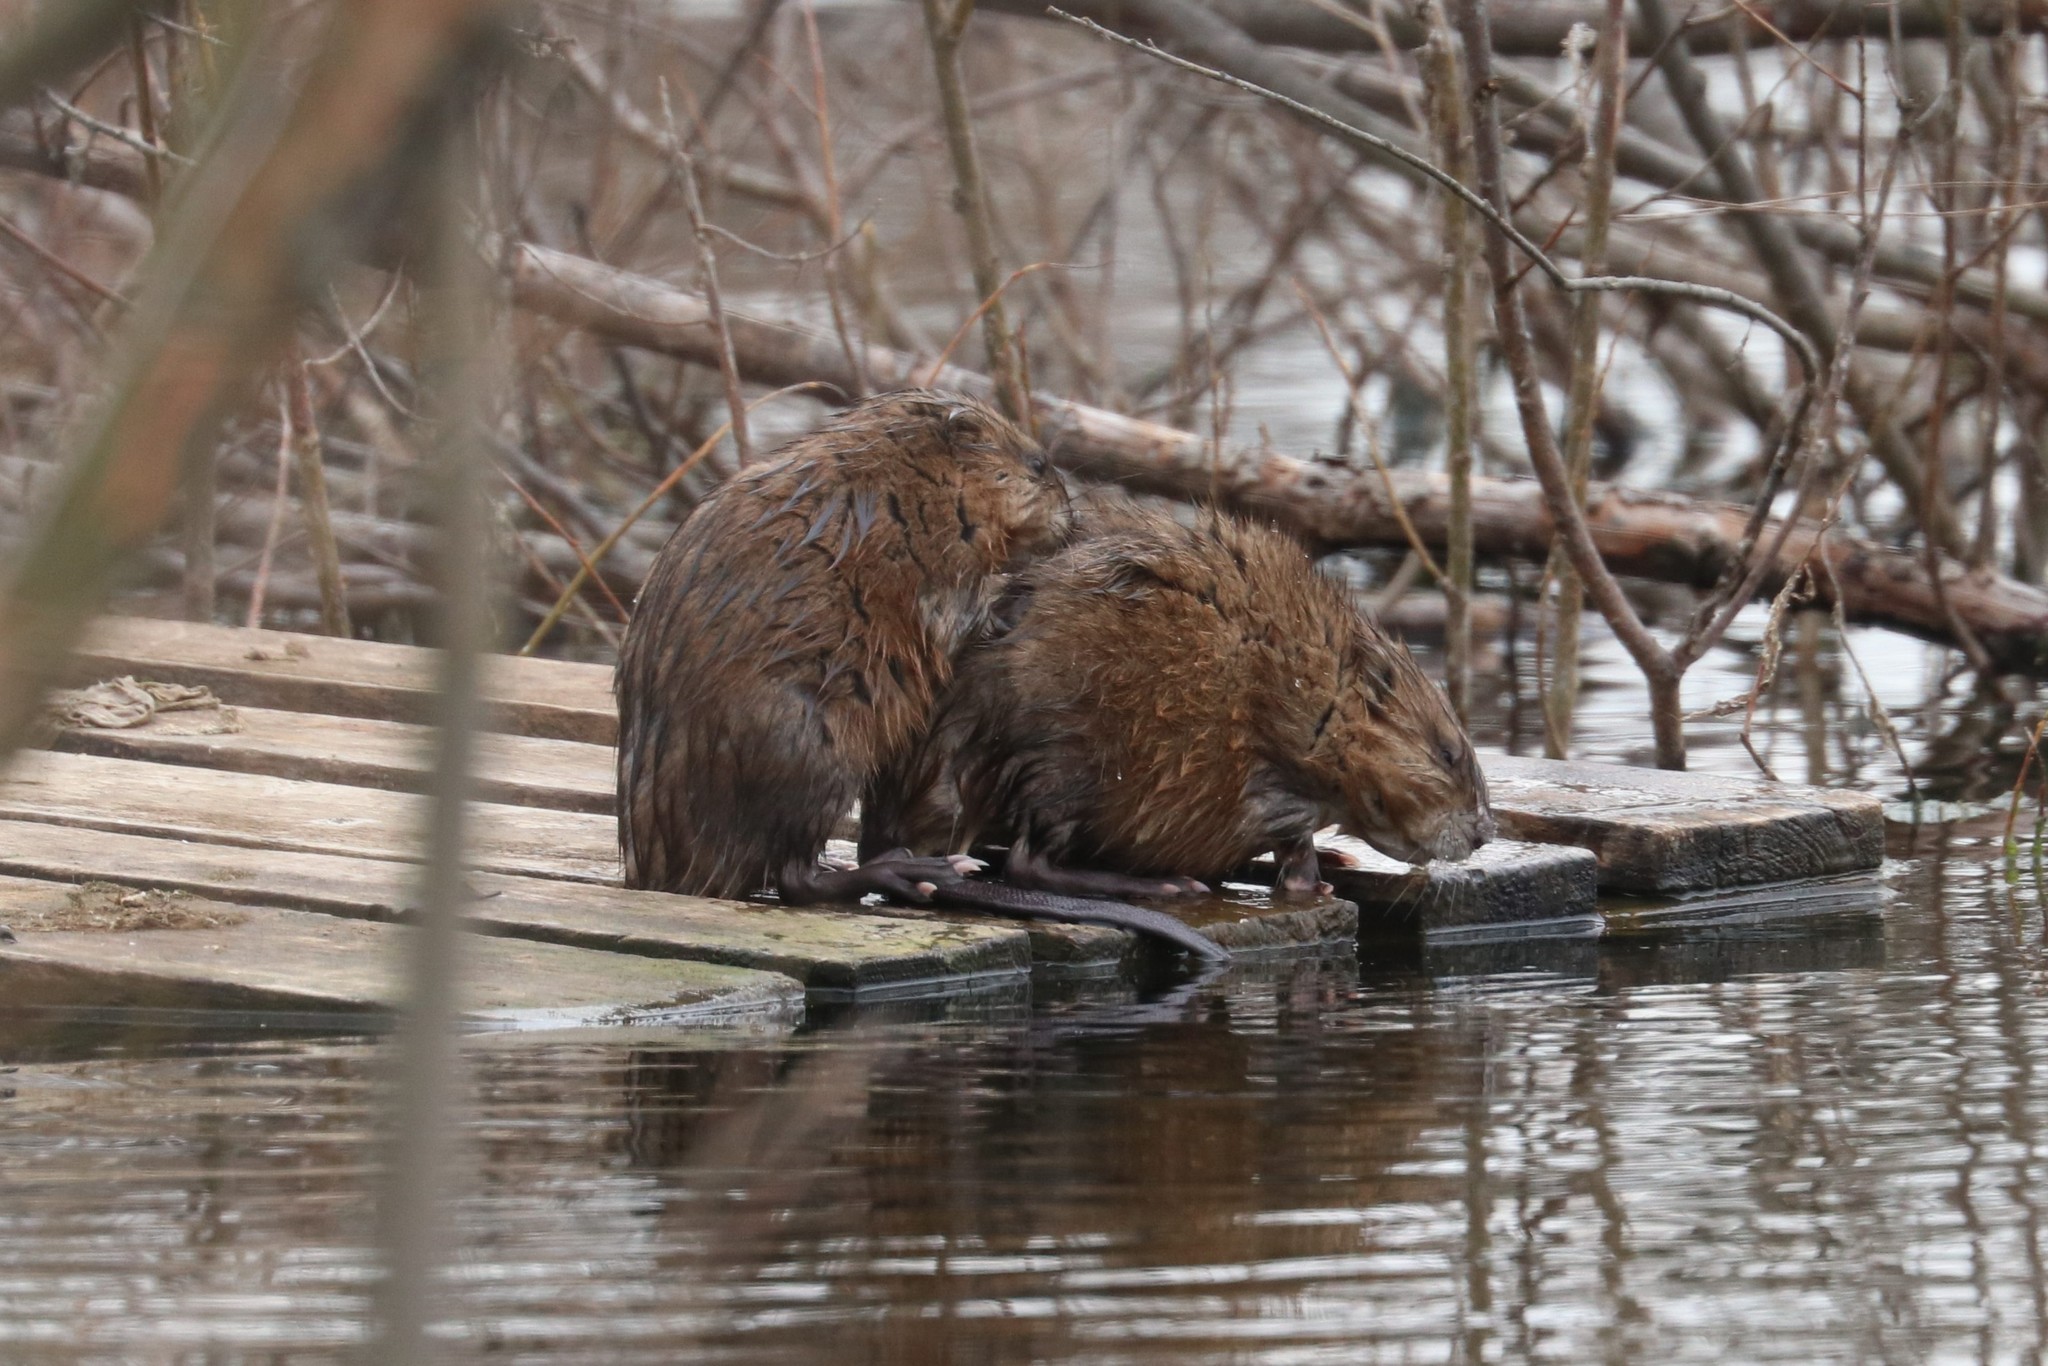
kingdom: Animalia
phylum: Chordata
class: Mammalia
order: Rodentia
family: Cricetidae
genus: Ondatra
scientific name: Ondatra zibethicus
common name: Muskrat
